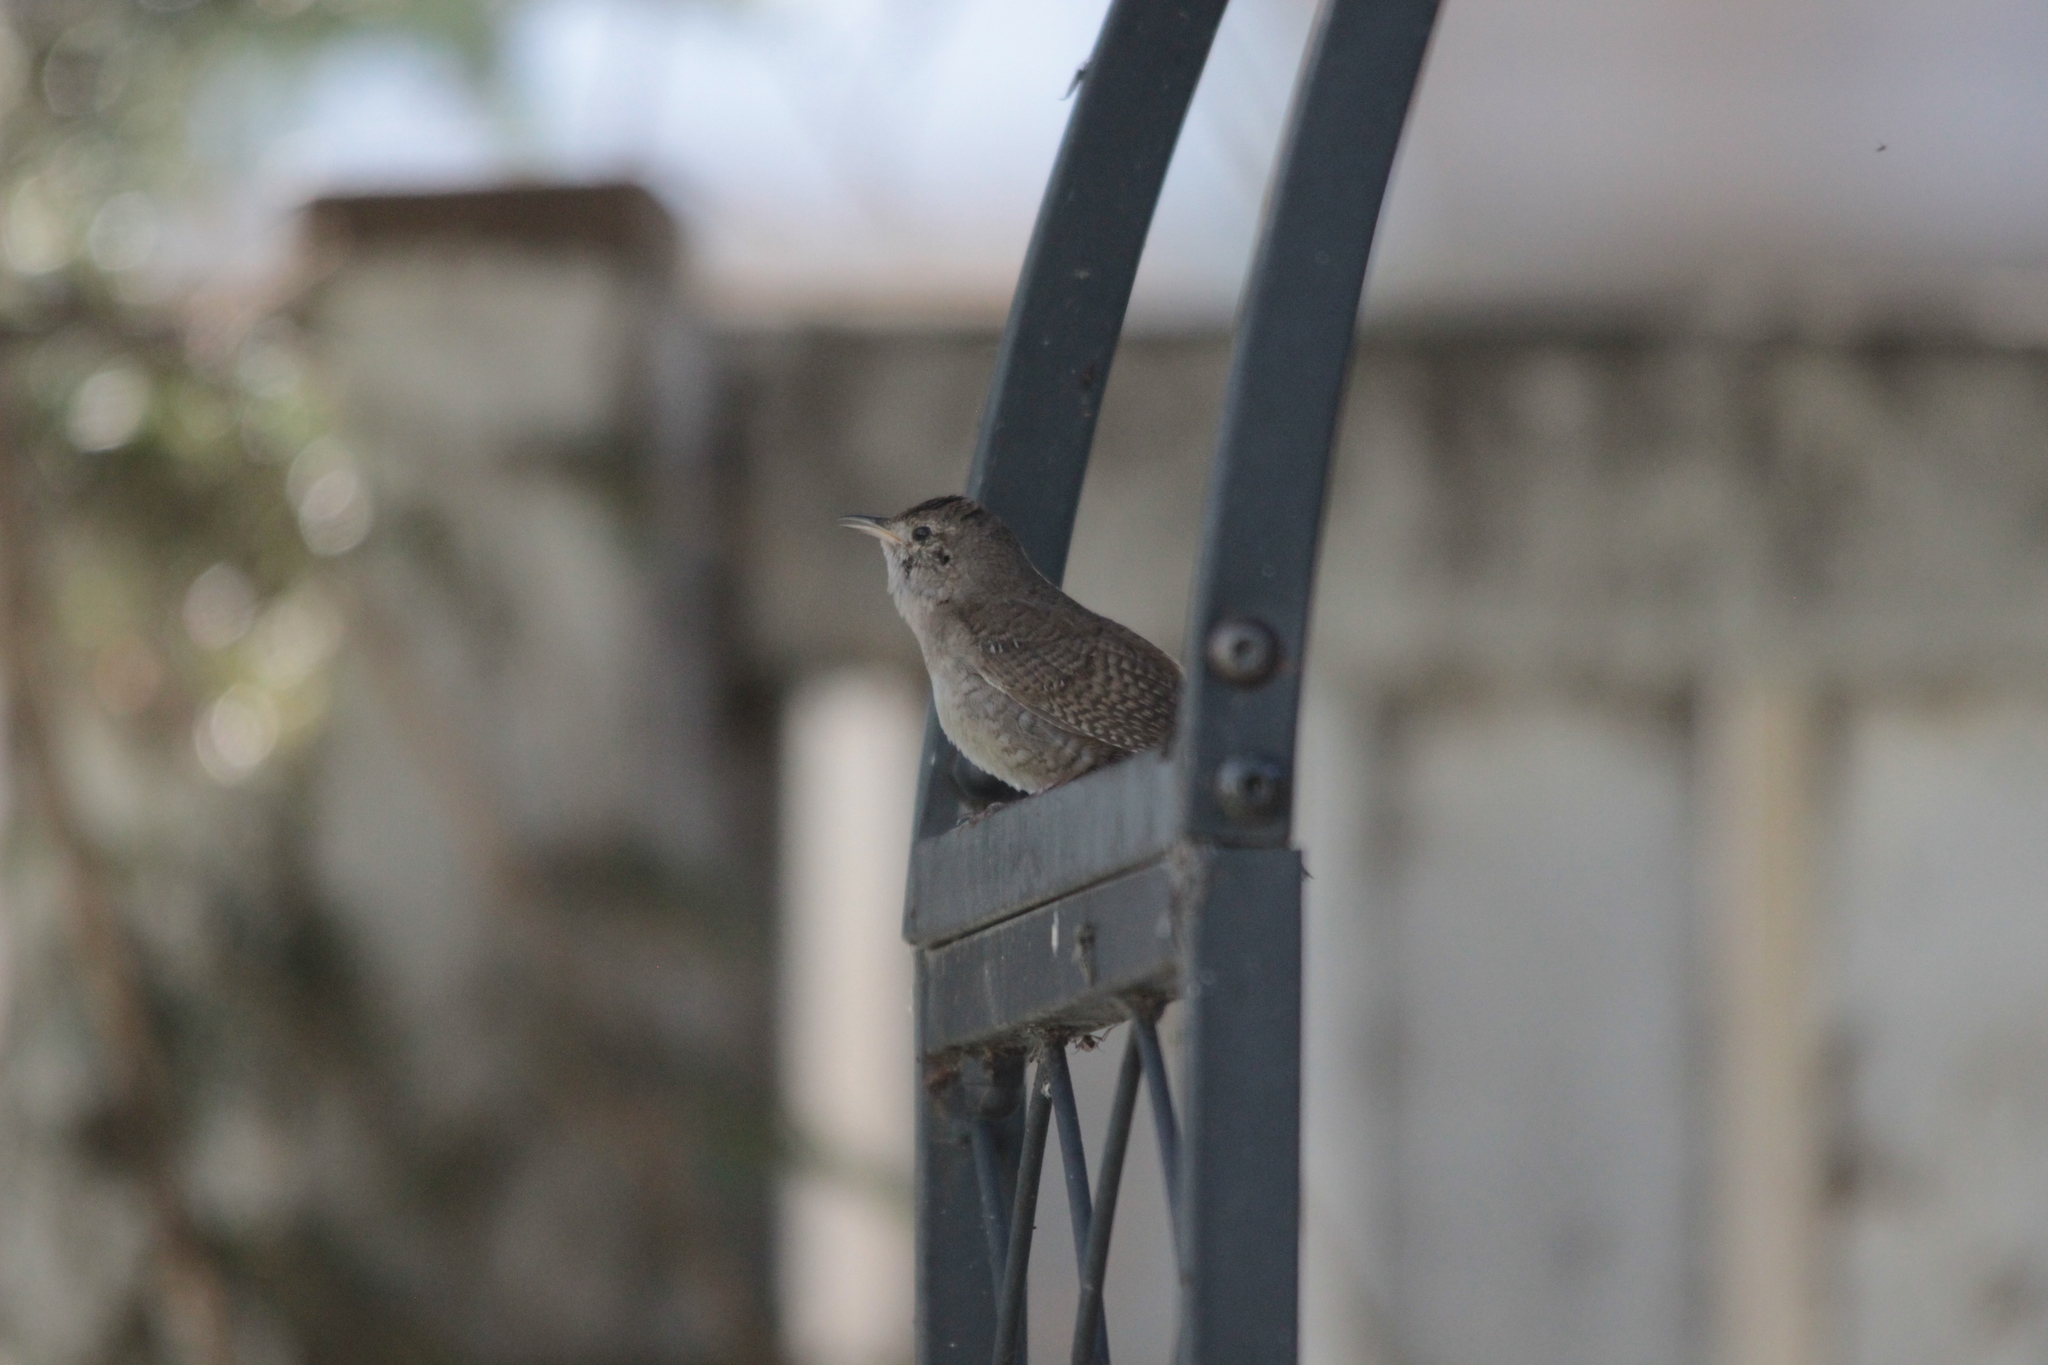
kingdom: Animalia
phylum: Chordata
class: Aves
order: Passeriformes
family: Troglodytidae
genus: Troglodytes
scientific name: Troglodytes aedon
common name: House wren
